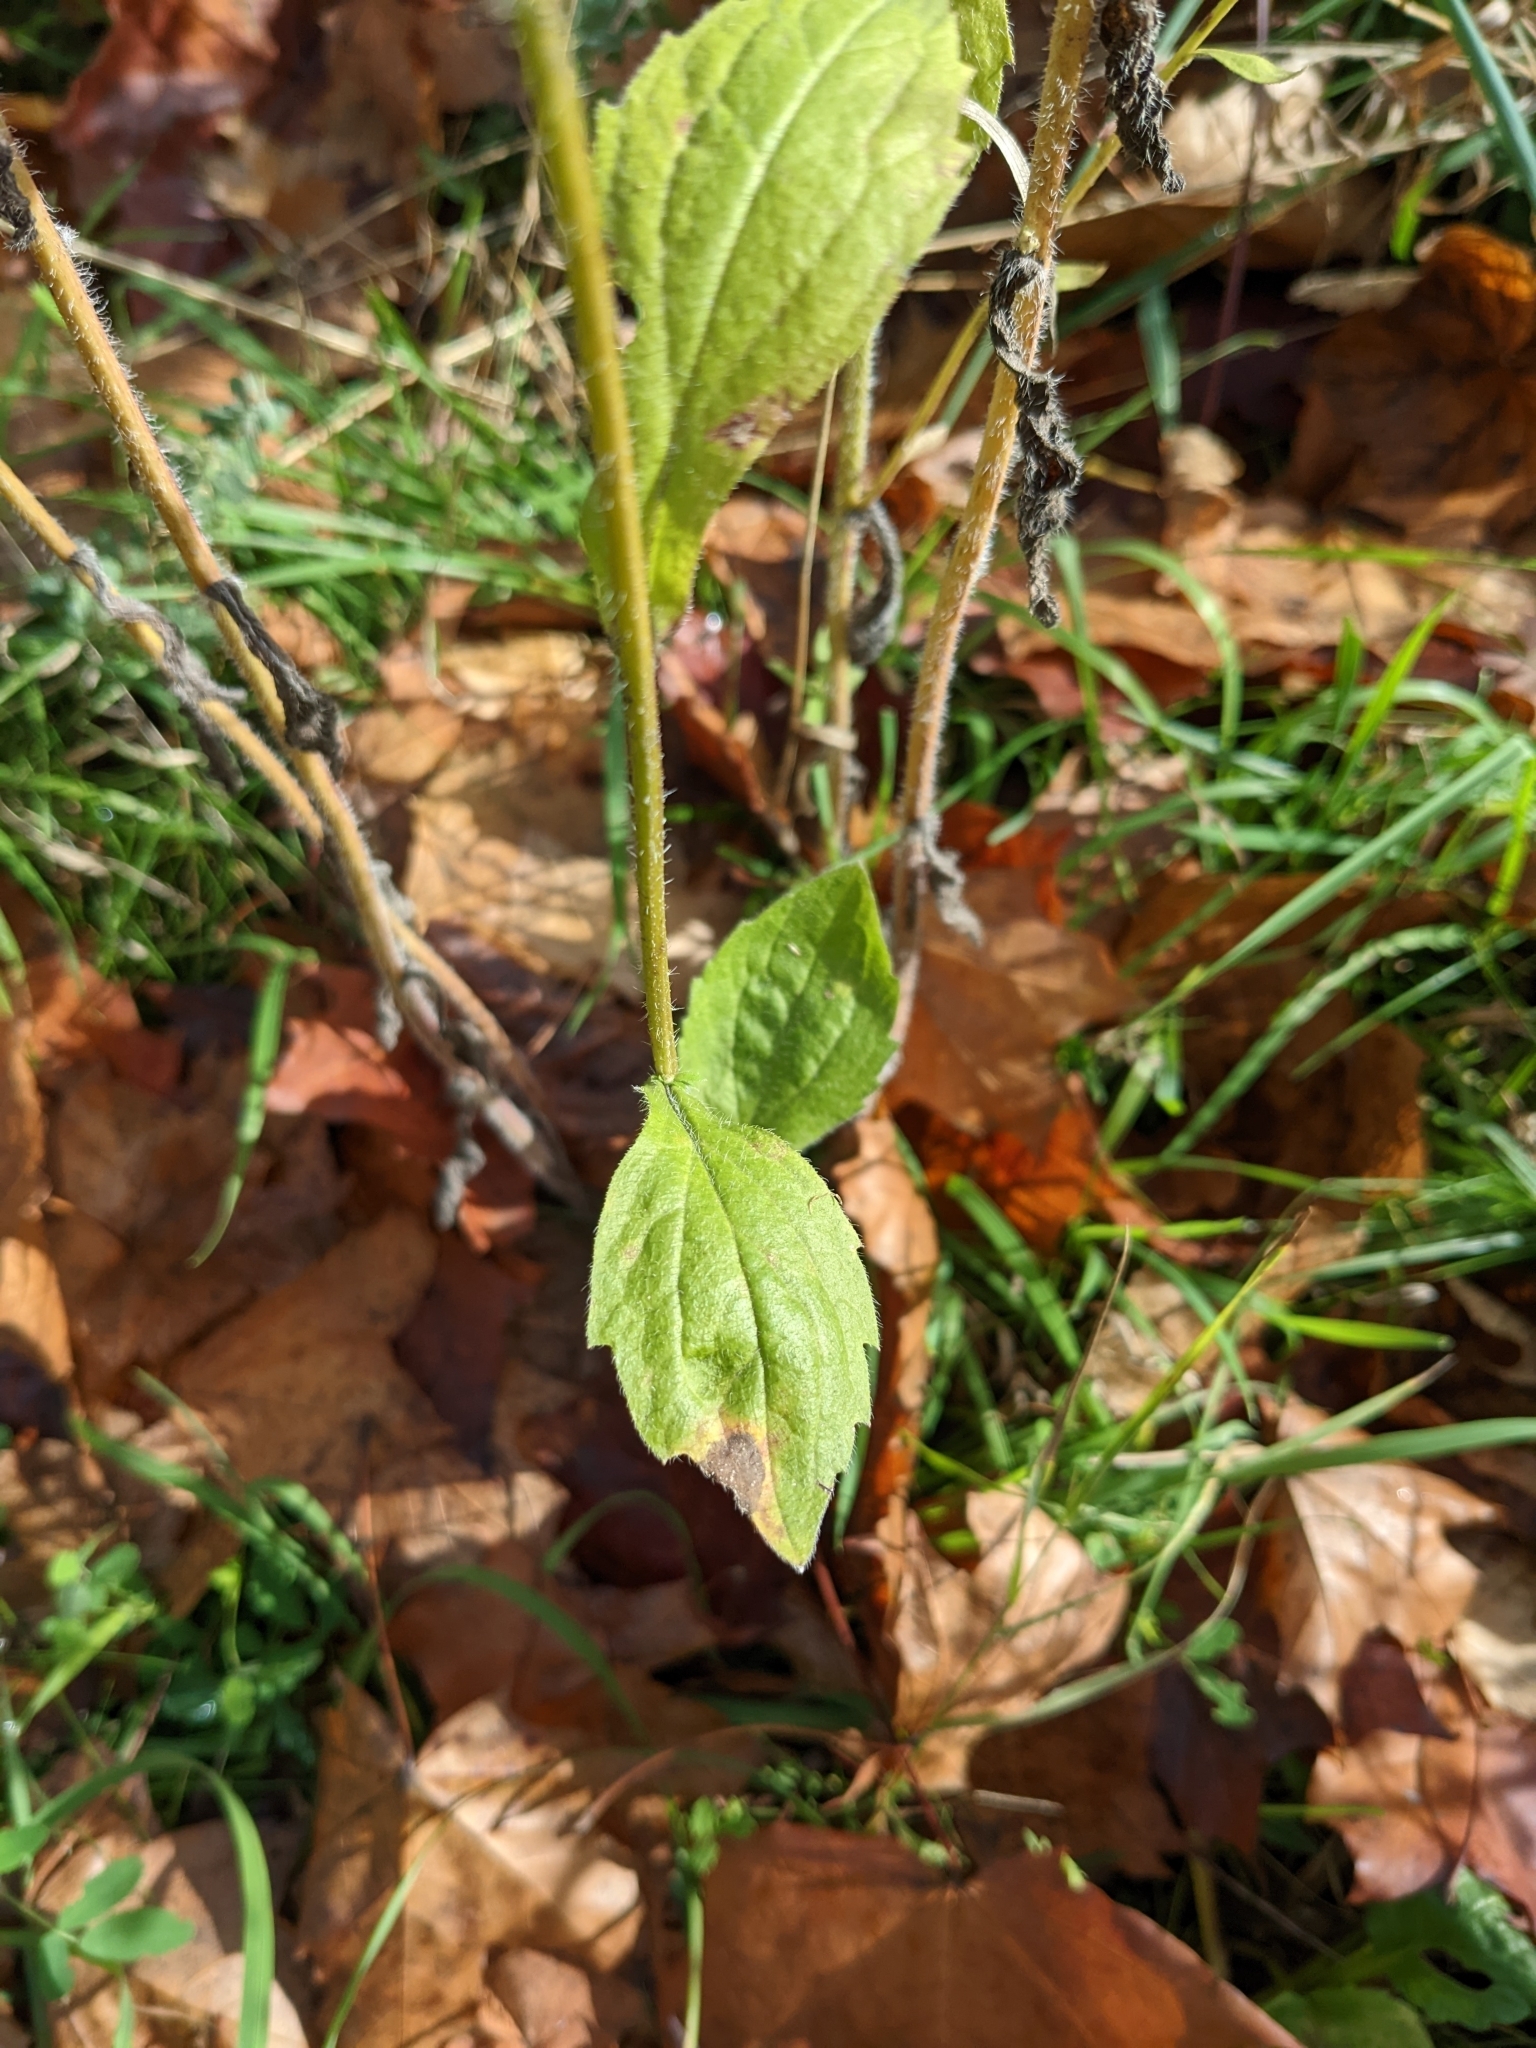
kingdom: Plantae
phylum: Tracheophyta
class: Magnoliopsida
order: Asterales
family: Asteraceae
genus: Erigeron
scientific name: Erigeron annuus
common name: Tall fleabane
